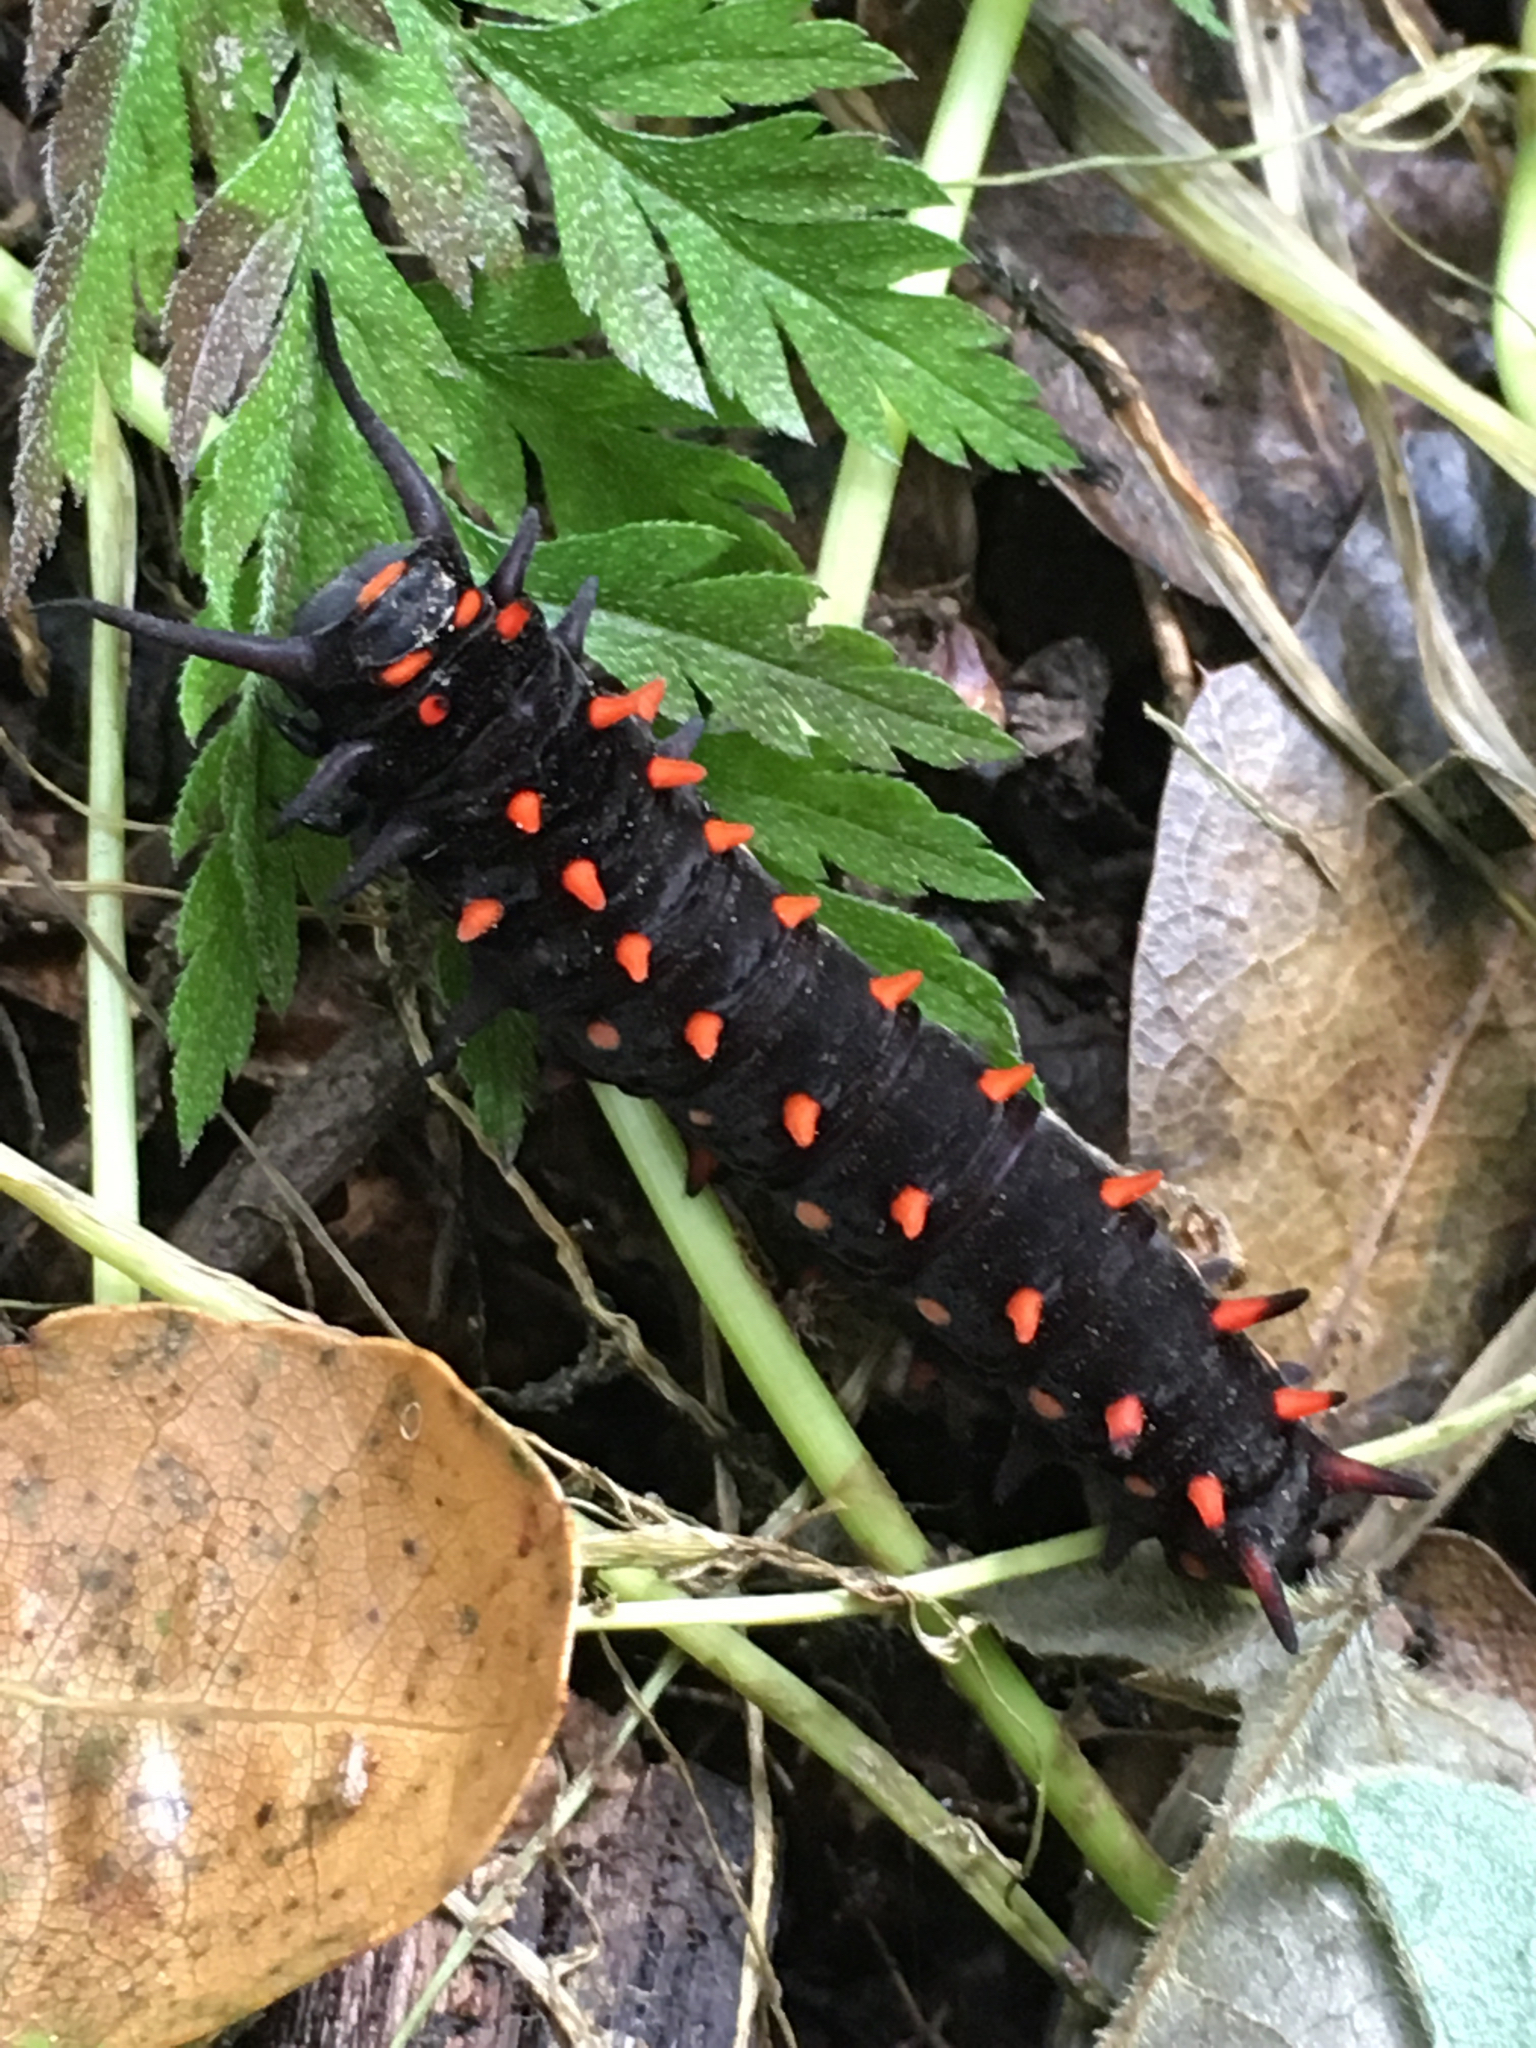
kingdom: Animalia
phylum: Arthropoda
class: Insecta
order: Lepidoptera
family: Papilionidae
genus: Battus
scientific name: Battus philenor
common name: Pipevine swallowtail
